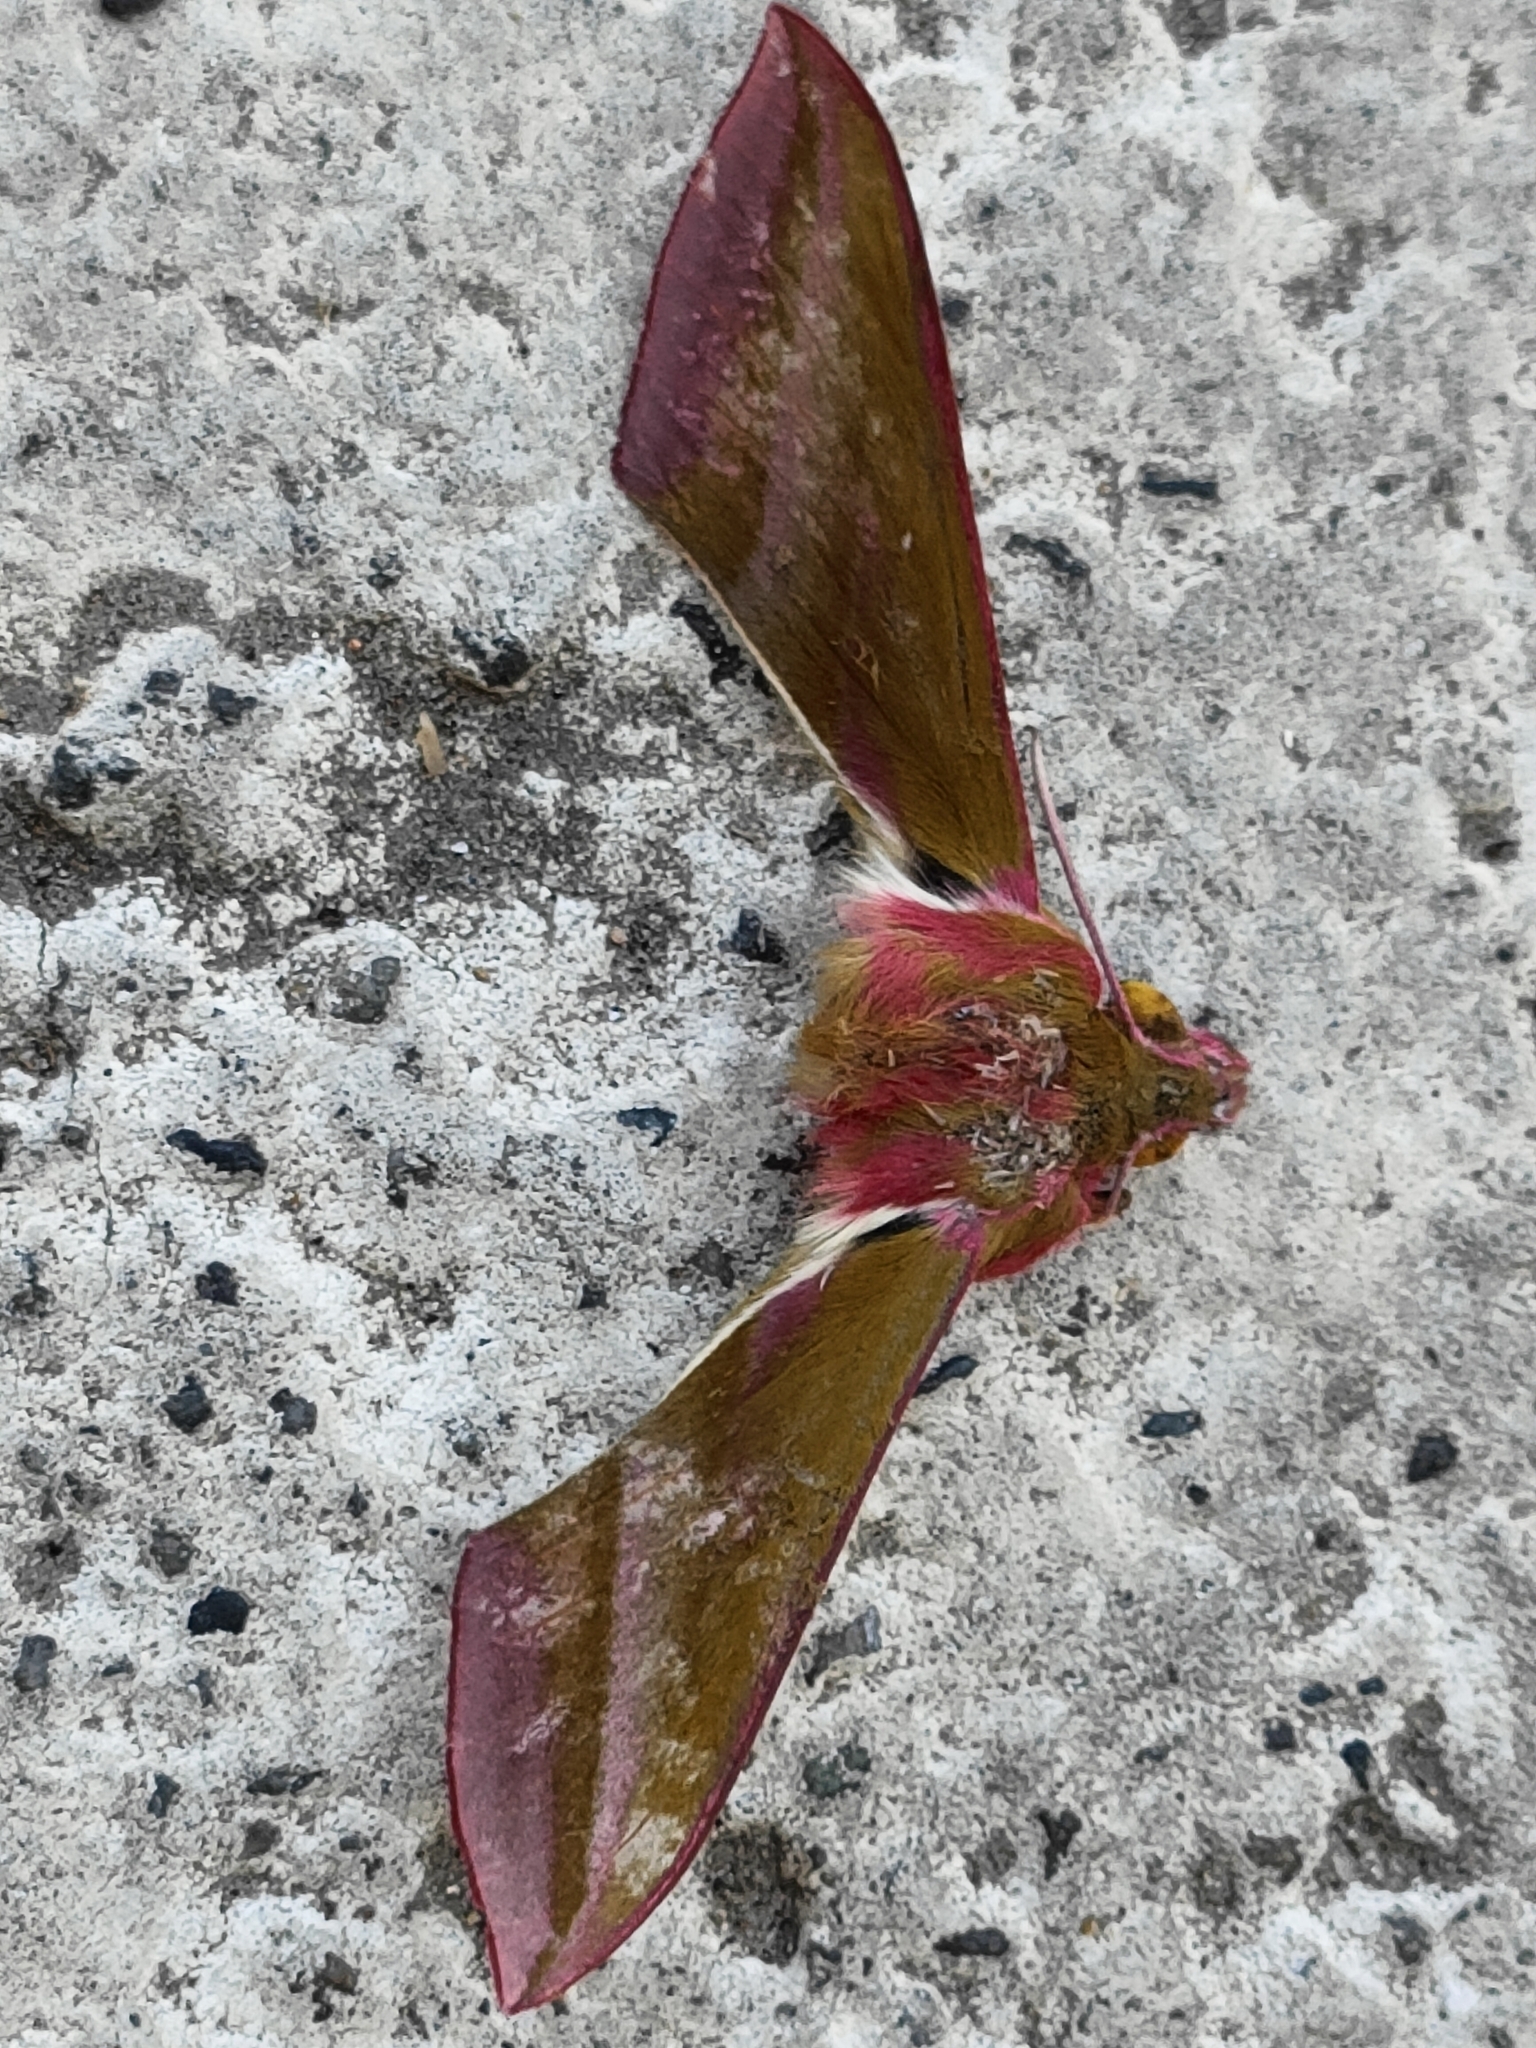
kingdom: Animalia
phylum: Arthropoda
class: Insecta
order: Lepidoptera
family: Sphingidae
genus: Deilephila
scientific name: Deilephila elpenor
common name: Elephant hawk-moth
